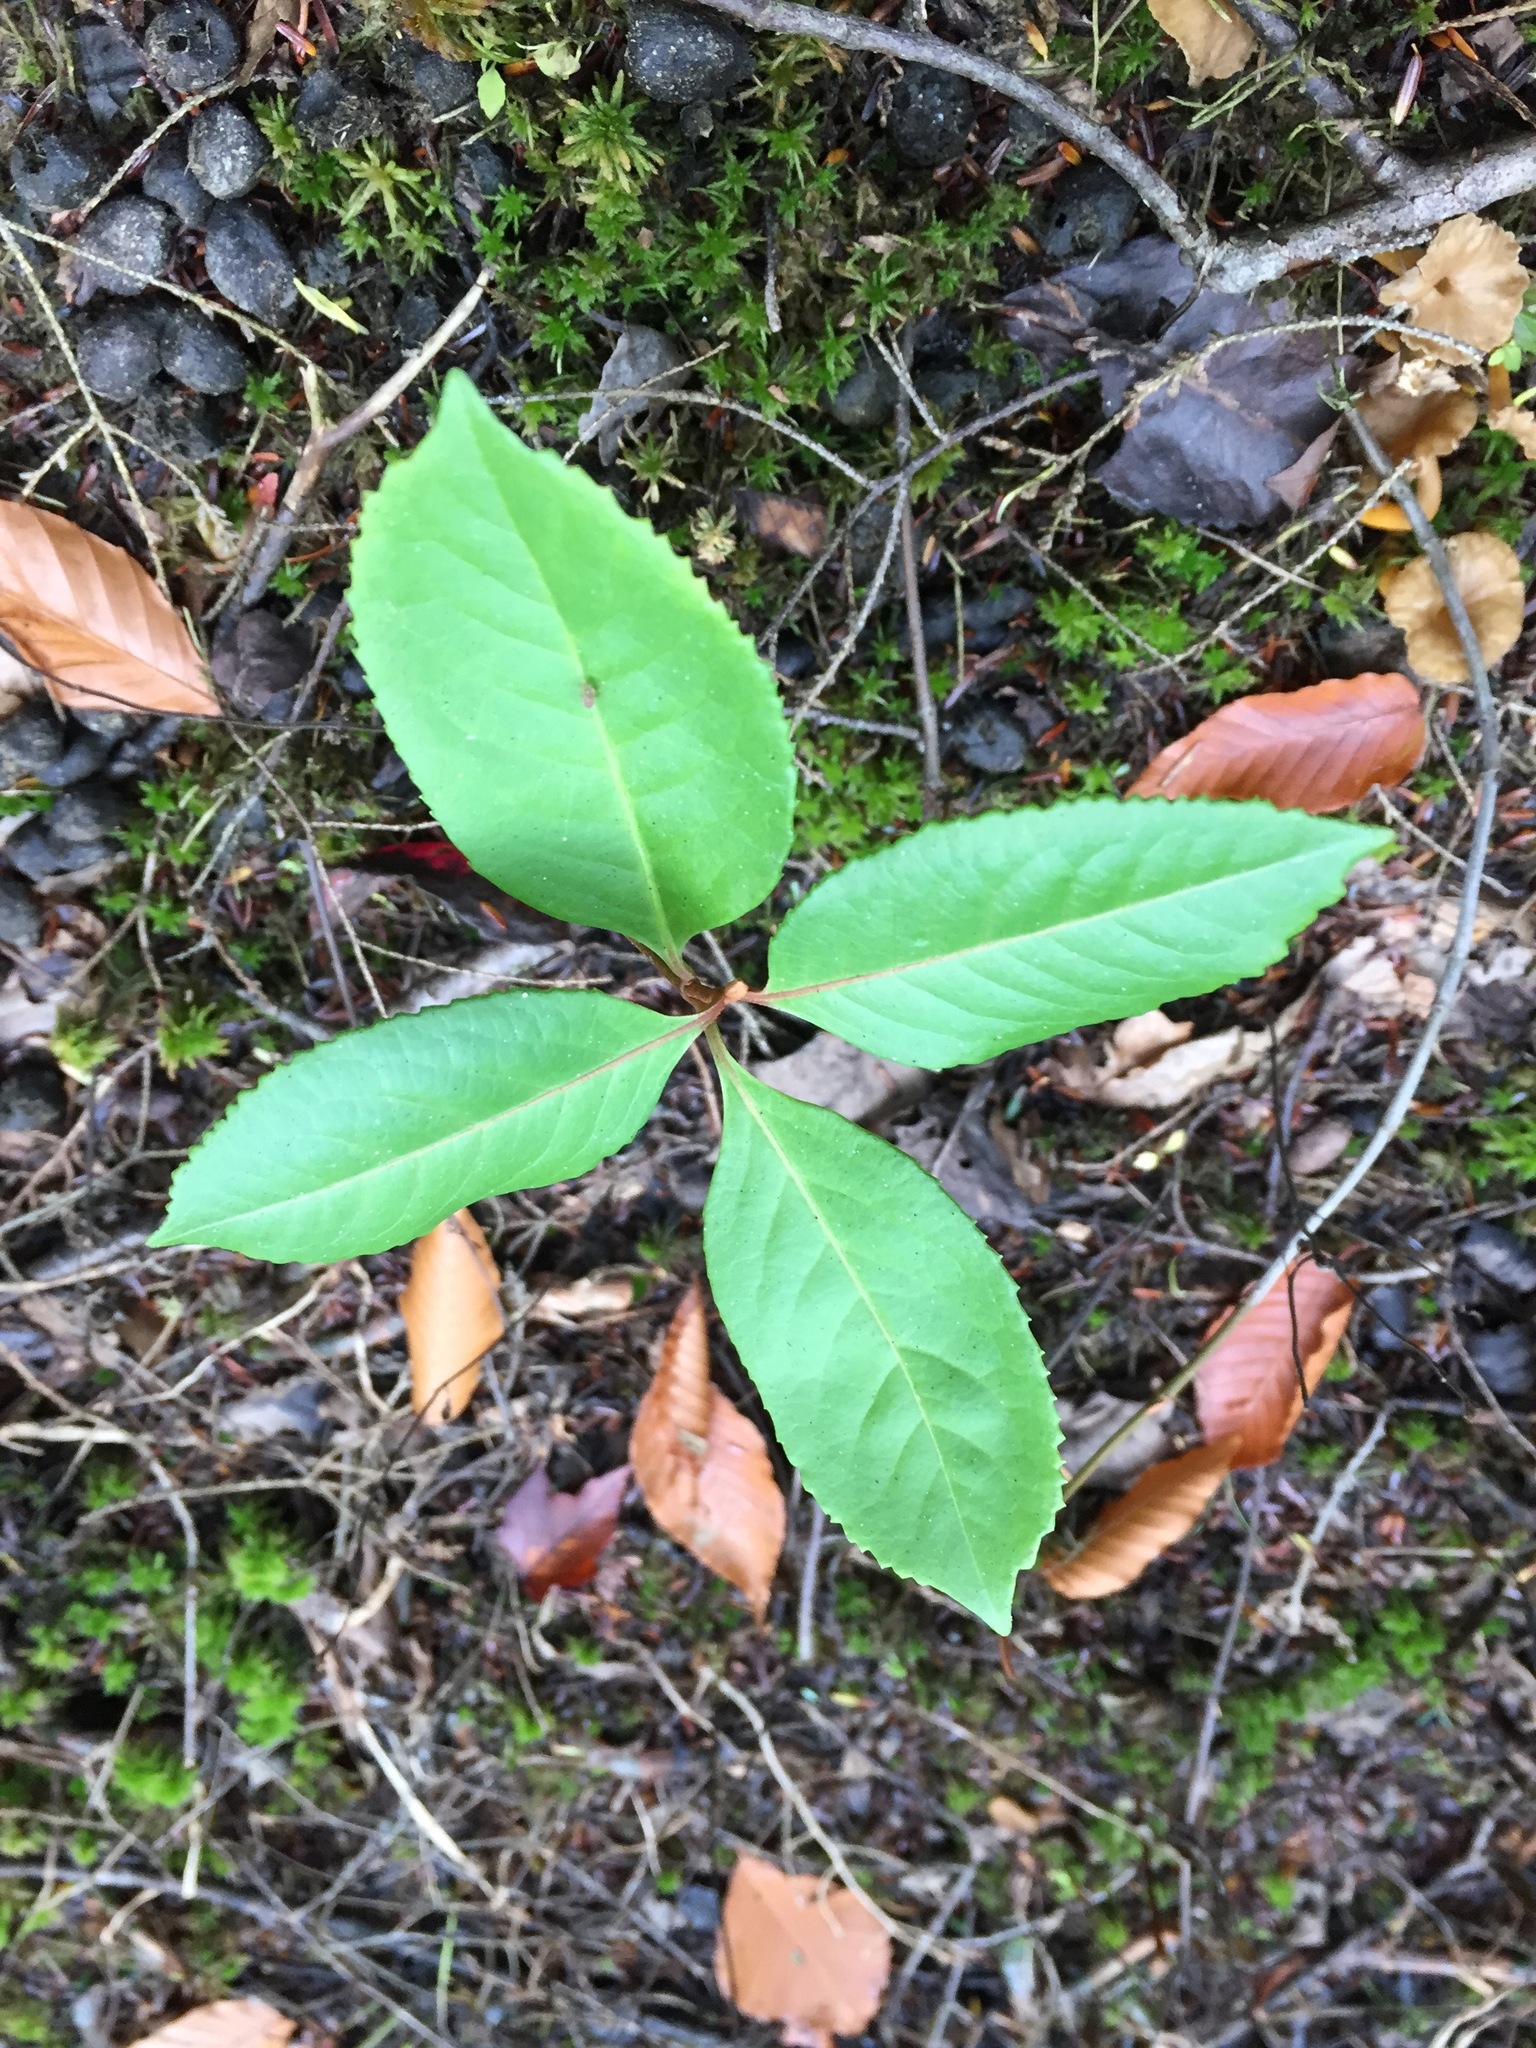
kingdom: Plantae
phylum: Tracheophyta
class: Magnoliopsida
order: Dipsacales
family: Viburnaceae
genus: Viburnum
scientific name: Viburnum cassinoides
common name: Swamp haw
